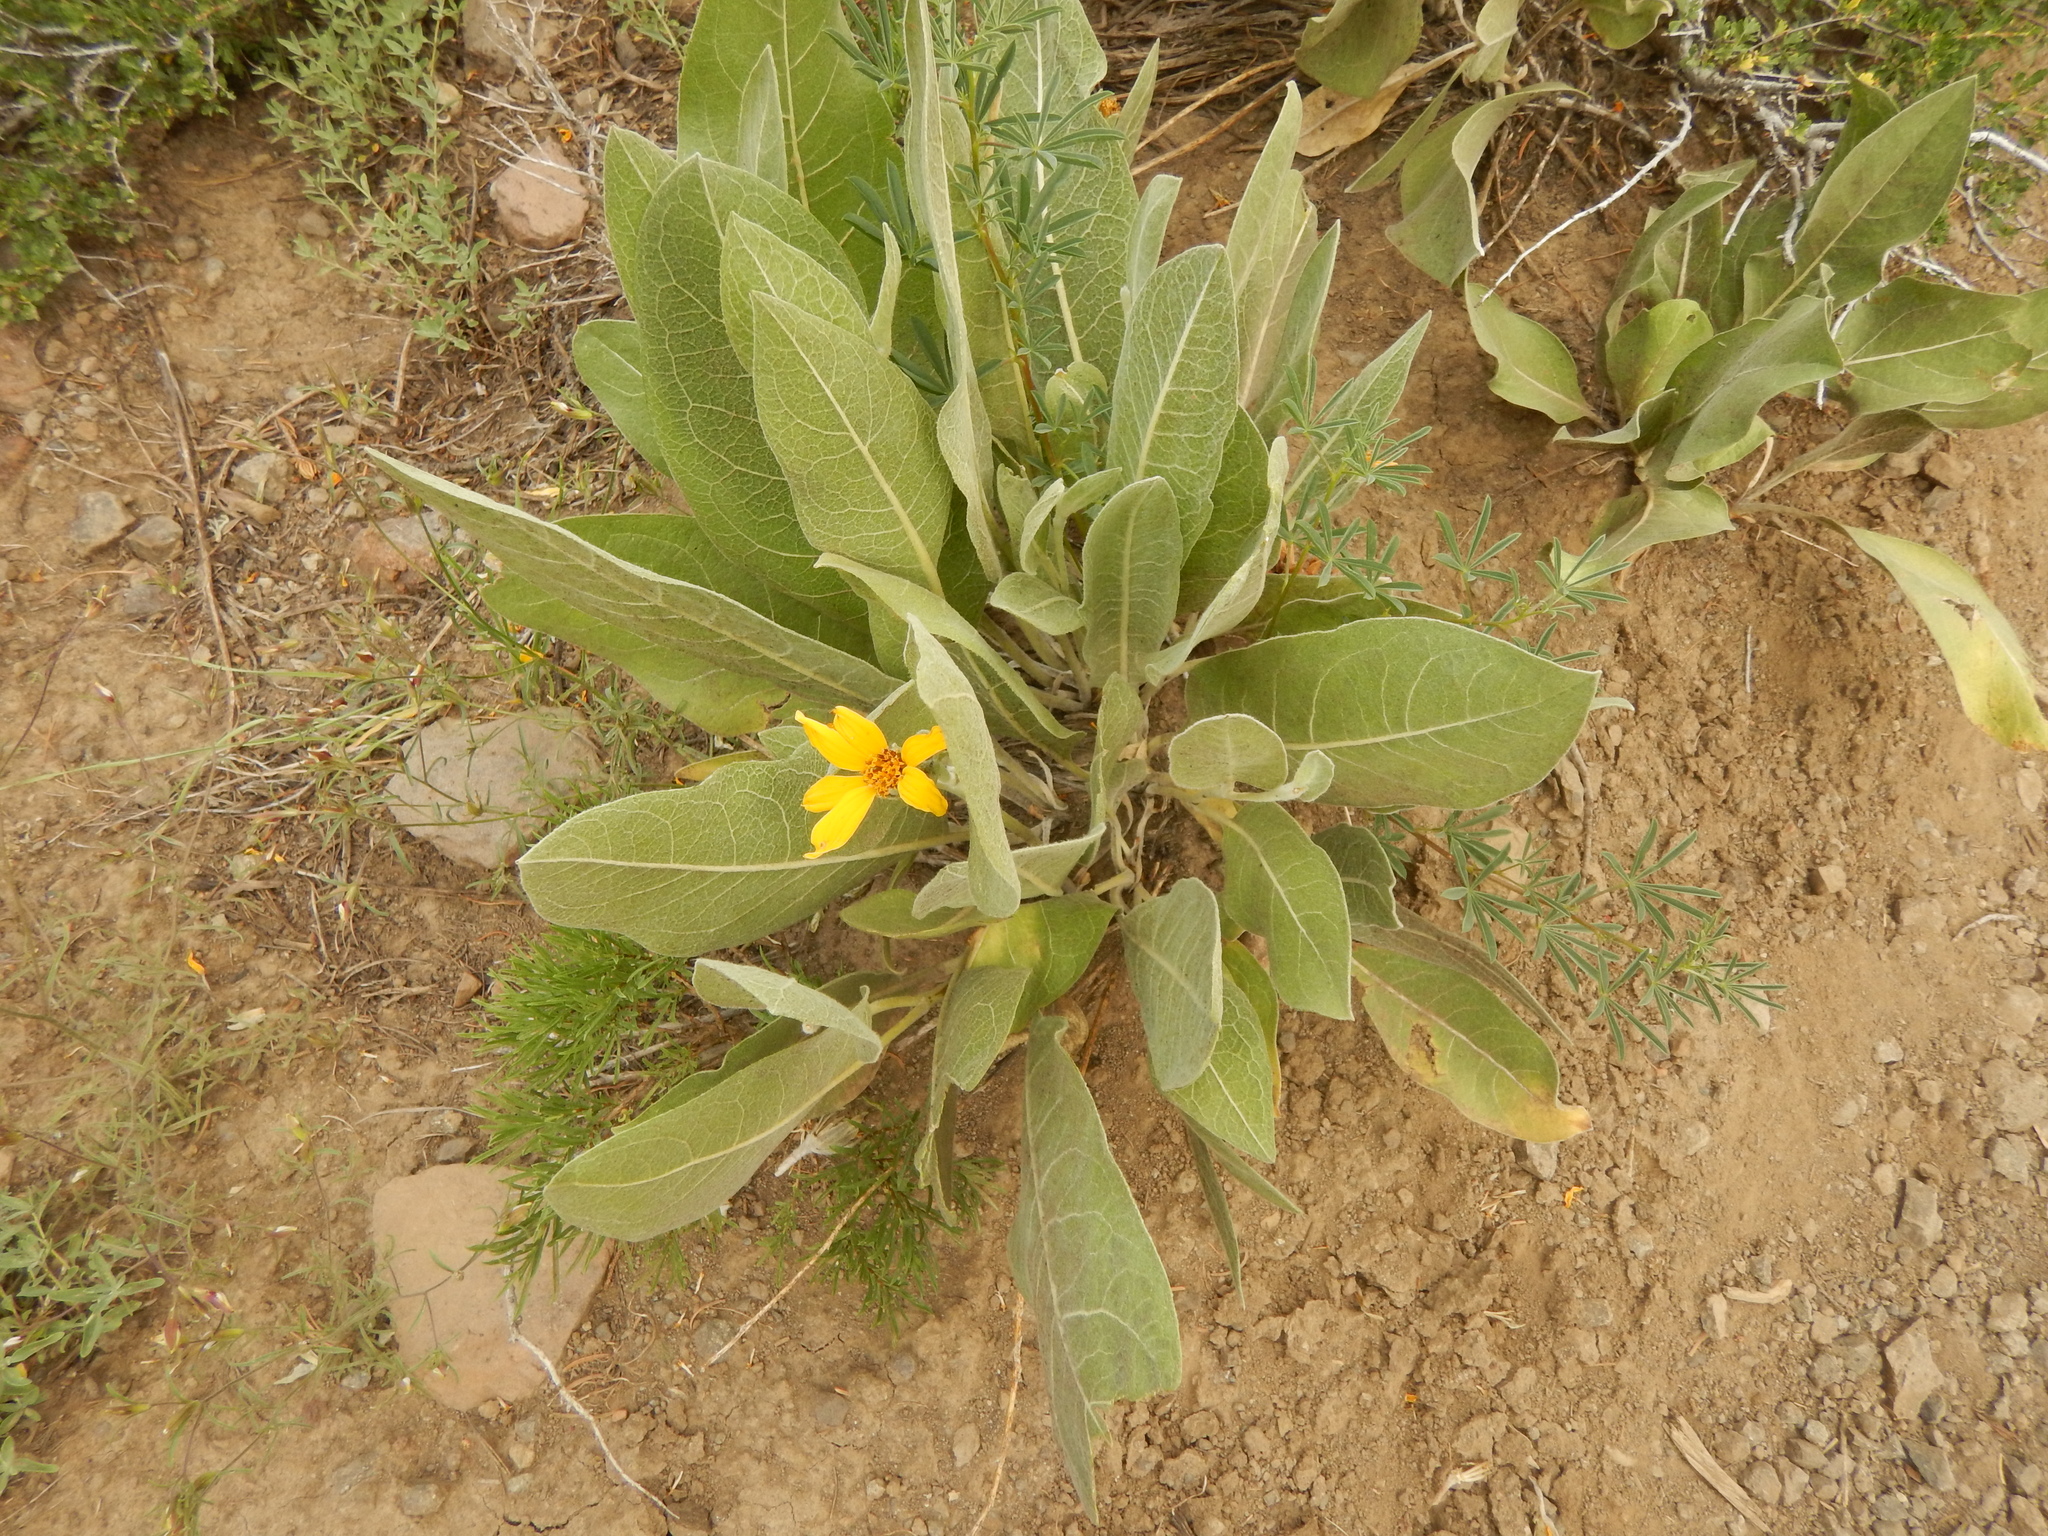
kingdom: Plantae
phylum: Tracheophyta
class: Magnoliopsida
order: Asterales
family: Asteraceae
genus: Wyethia
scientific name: Wyethia mollis
